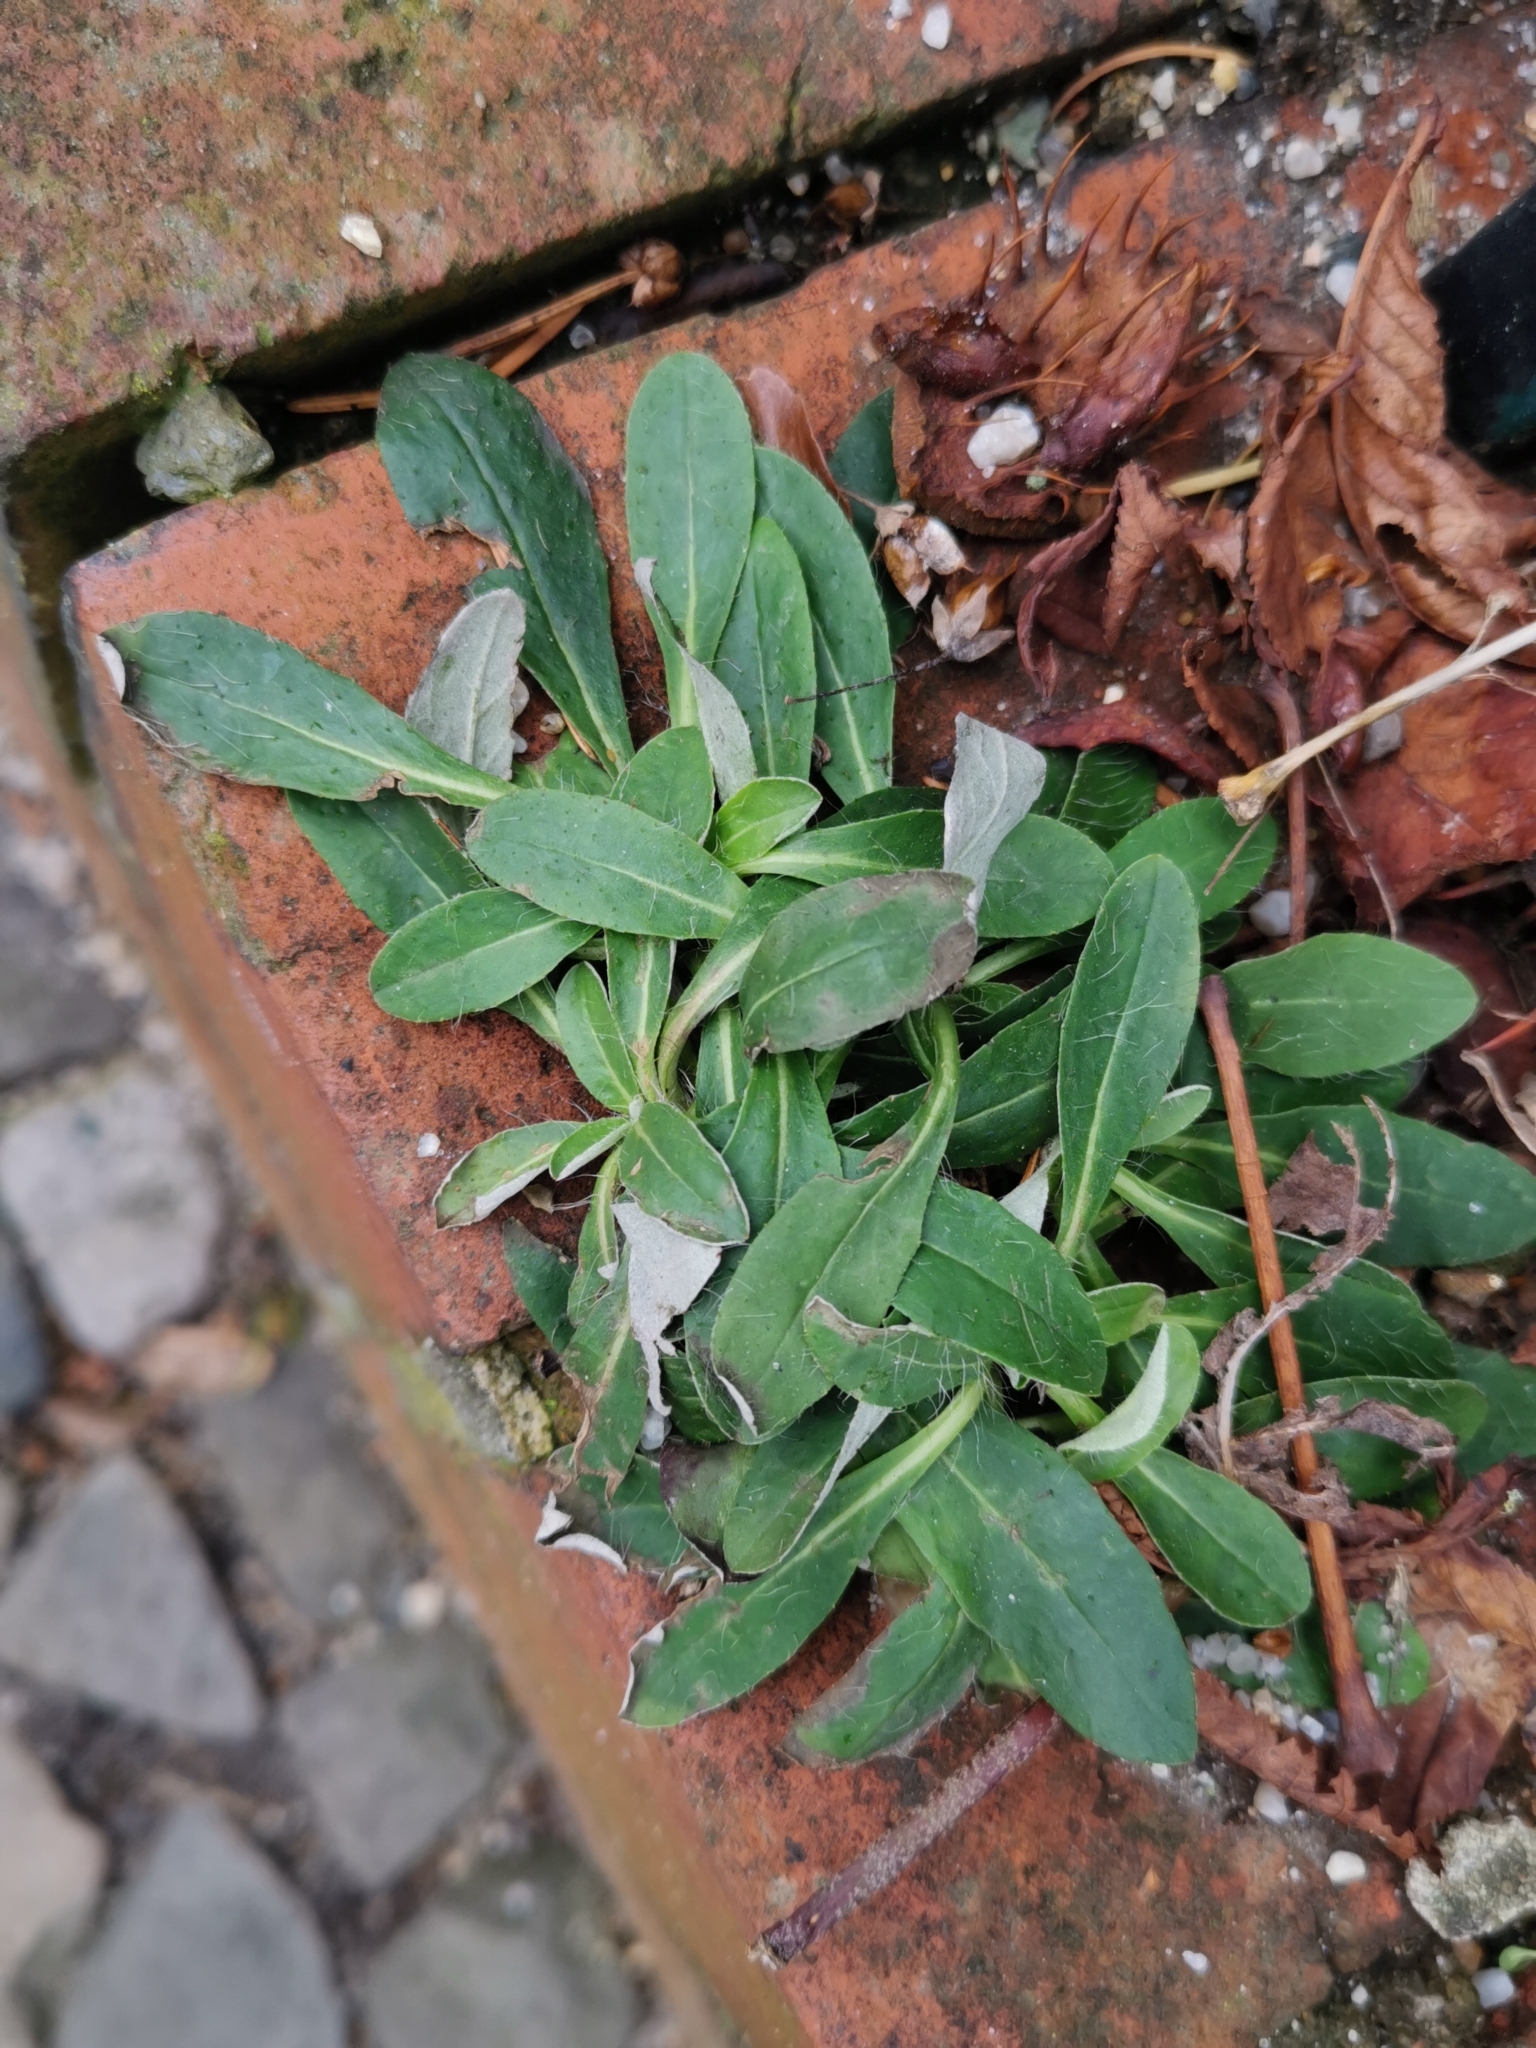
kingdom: Plantae
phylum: Tracheophyta
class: Magnoliopsida
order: Asterales
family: Asteraceae
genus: Pilosella
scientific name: Pilosella officinarum
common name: Mouse-ear hawkweed
